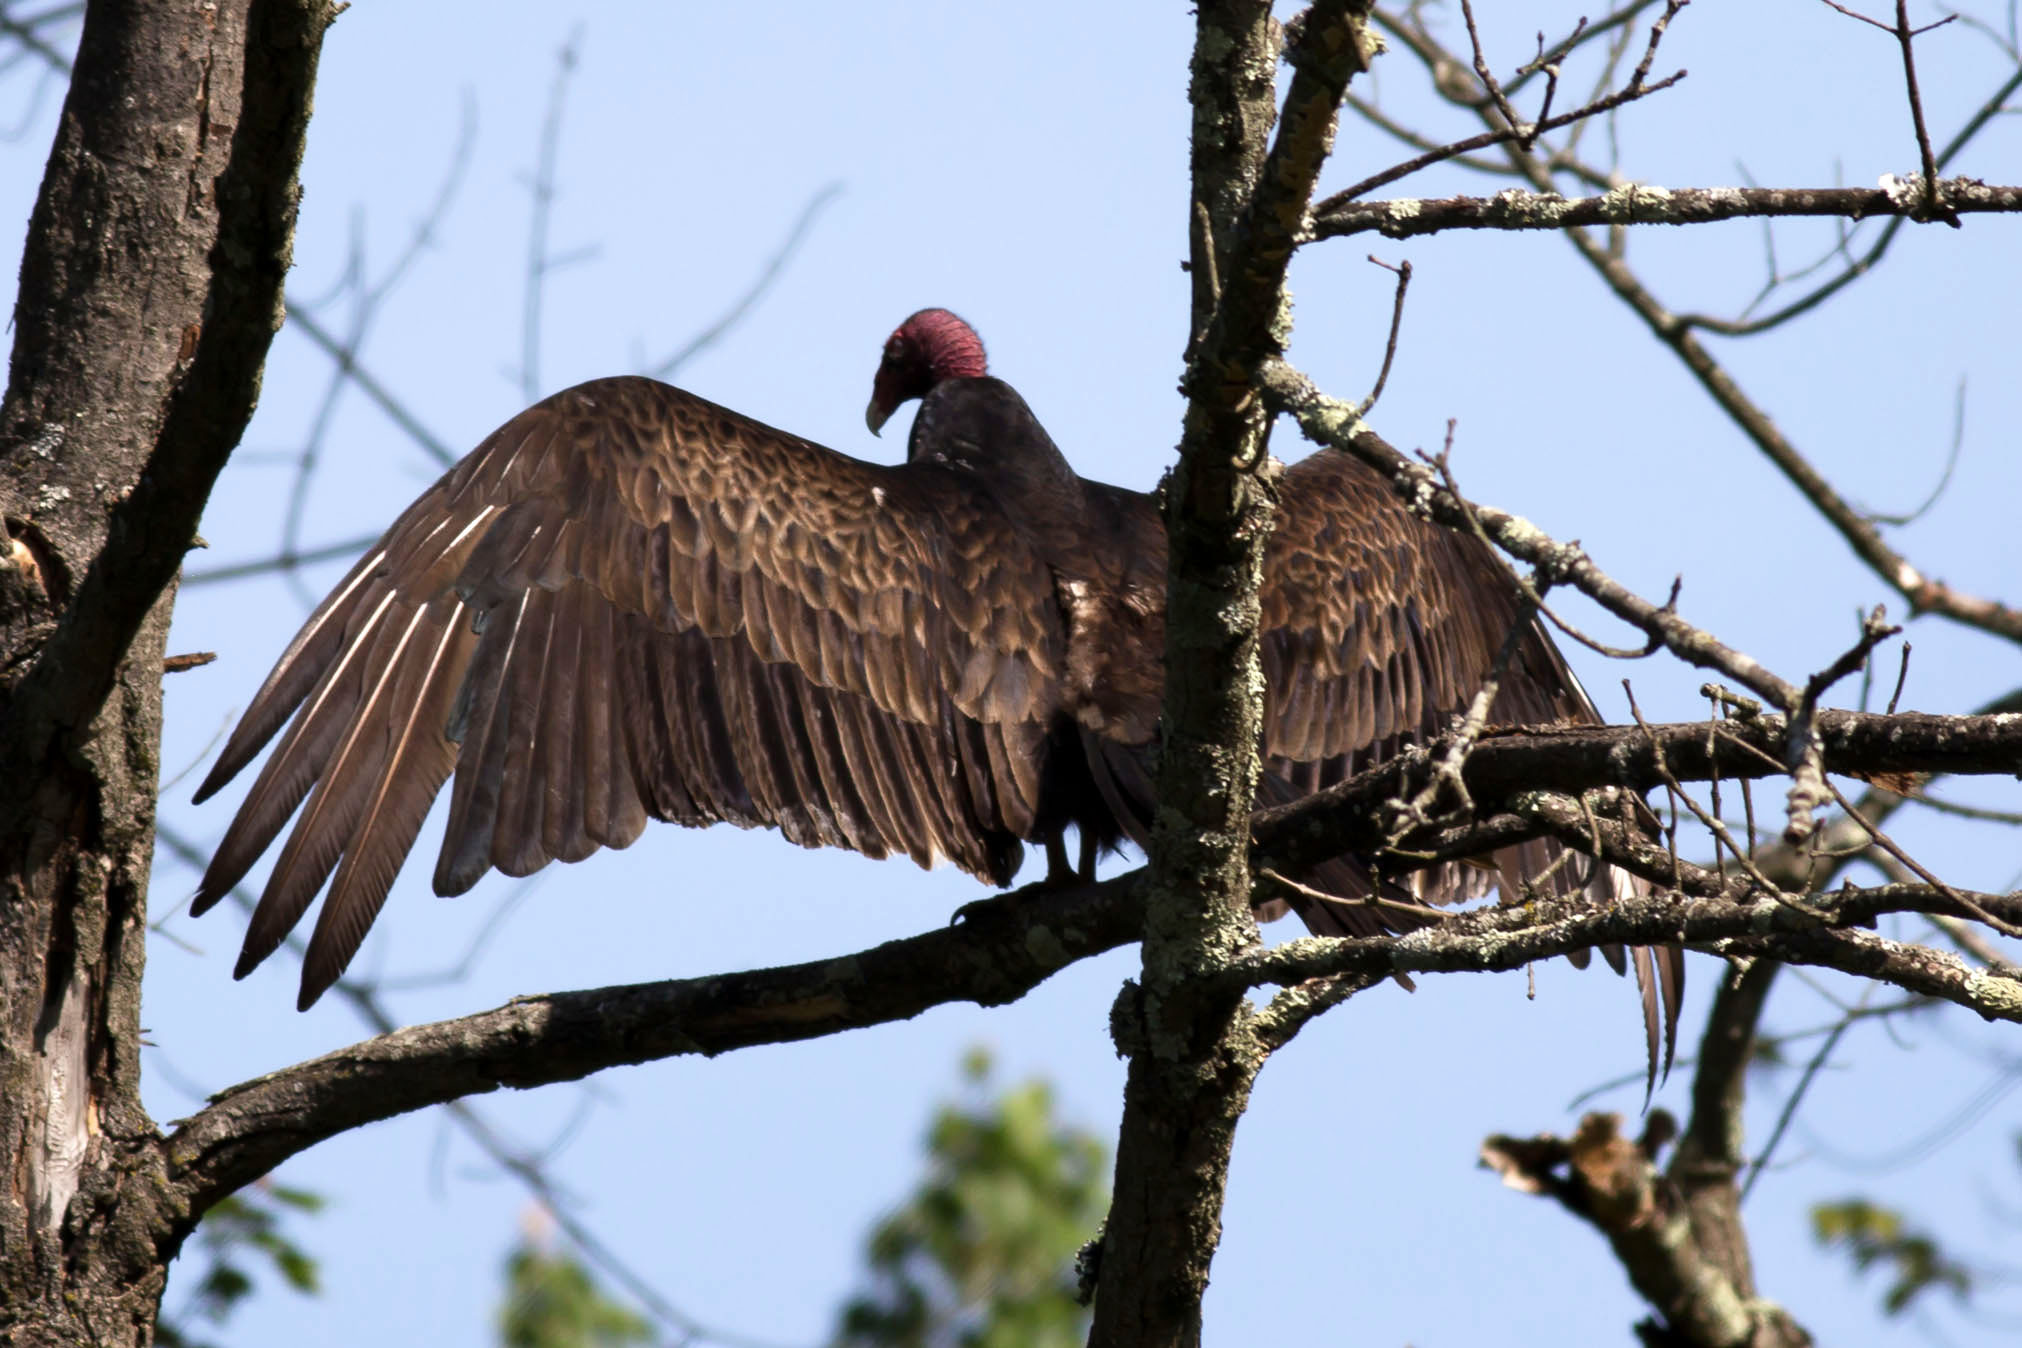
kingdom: Animalia
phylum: Chordata
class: Aves
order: Accipitriformes
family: Cathartidae
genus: Cathartes
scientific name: Cathartes aura
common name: Turkey vulture
